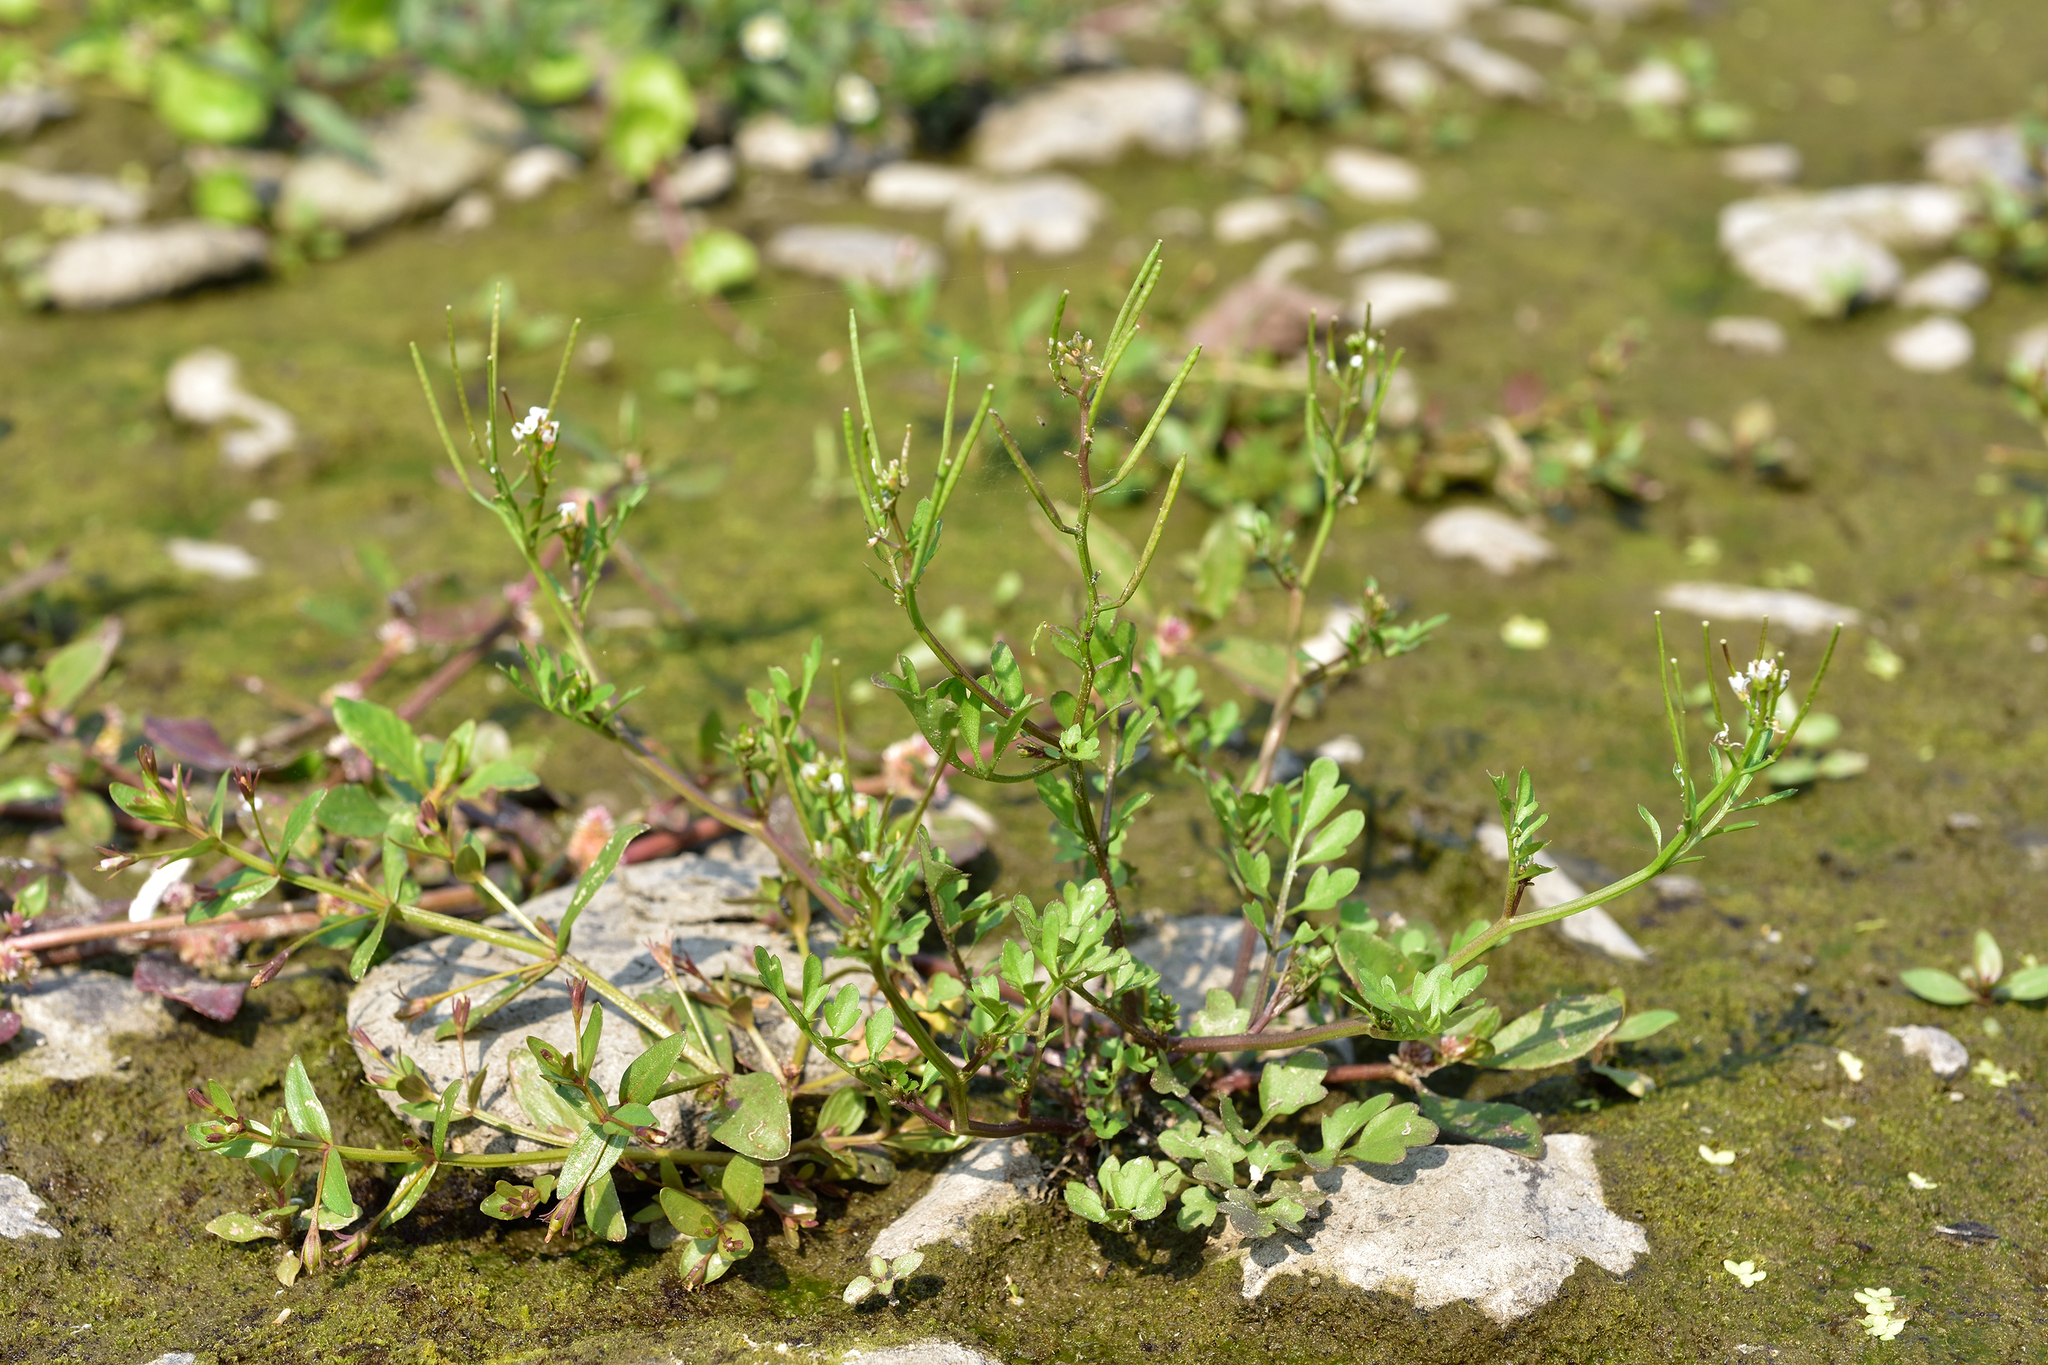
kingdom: Plantae
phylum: Tracheophyta
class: Magnoliopsida
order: Brassicales
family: Brassicaceae
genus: Cardamine
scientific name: Cardamine flexuosa
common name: Woodland bittercress
